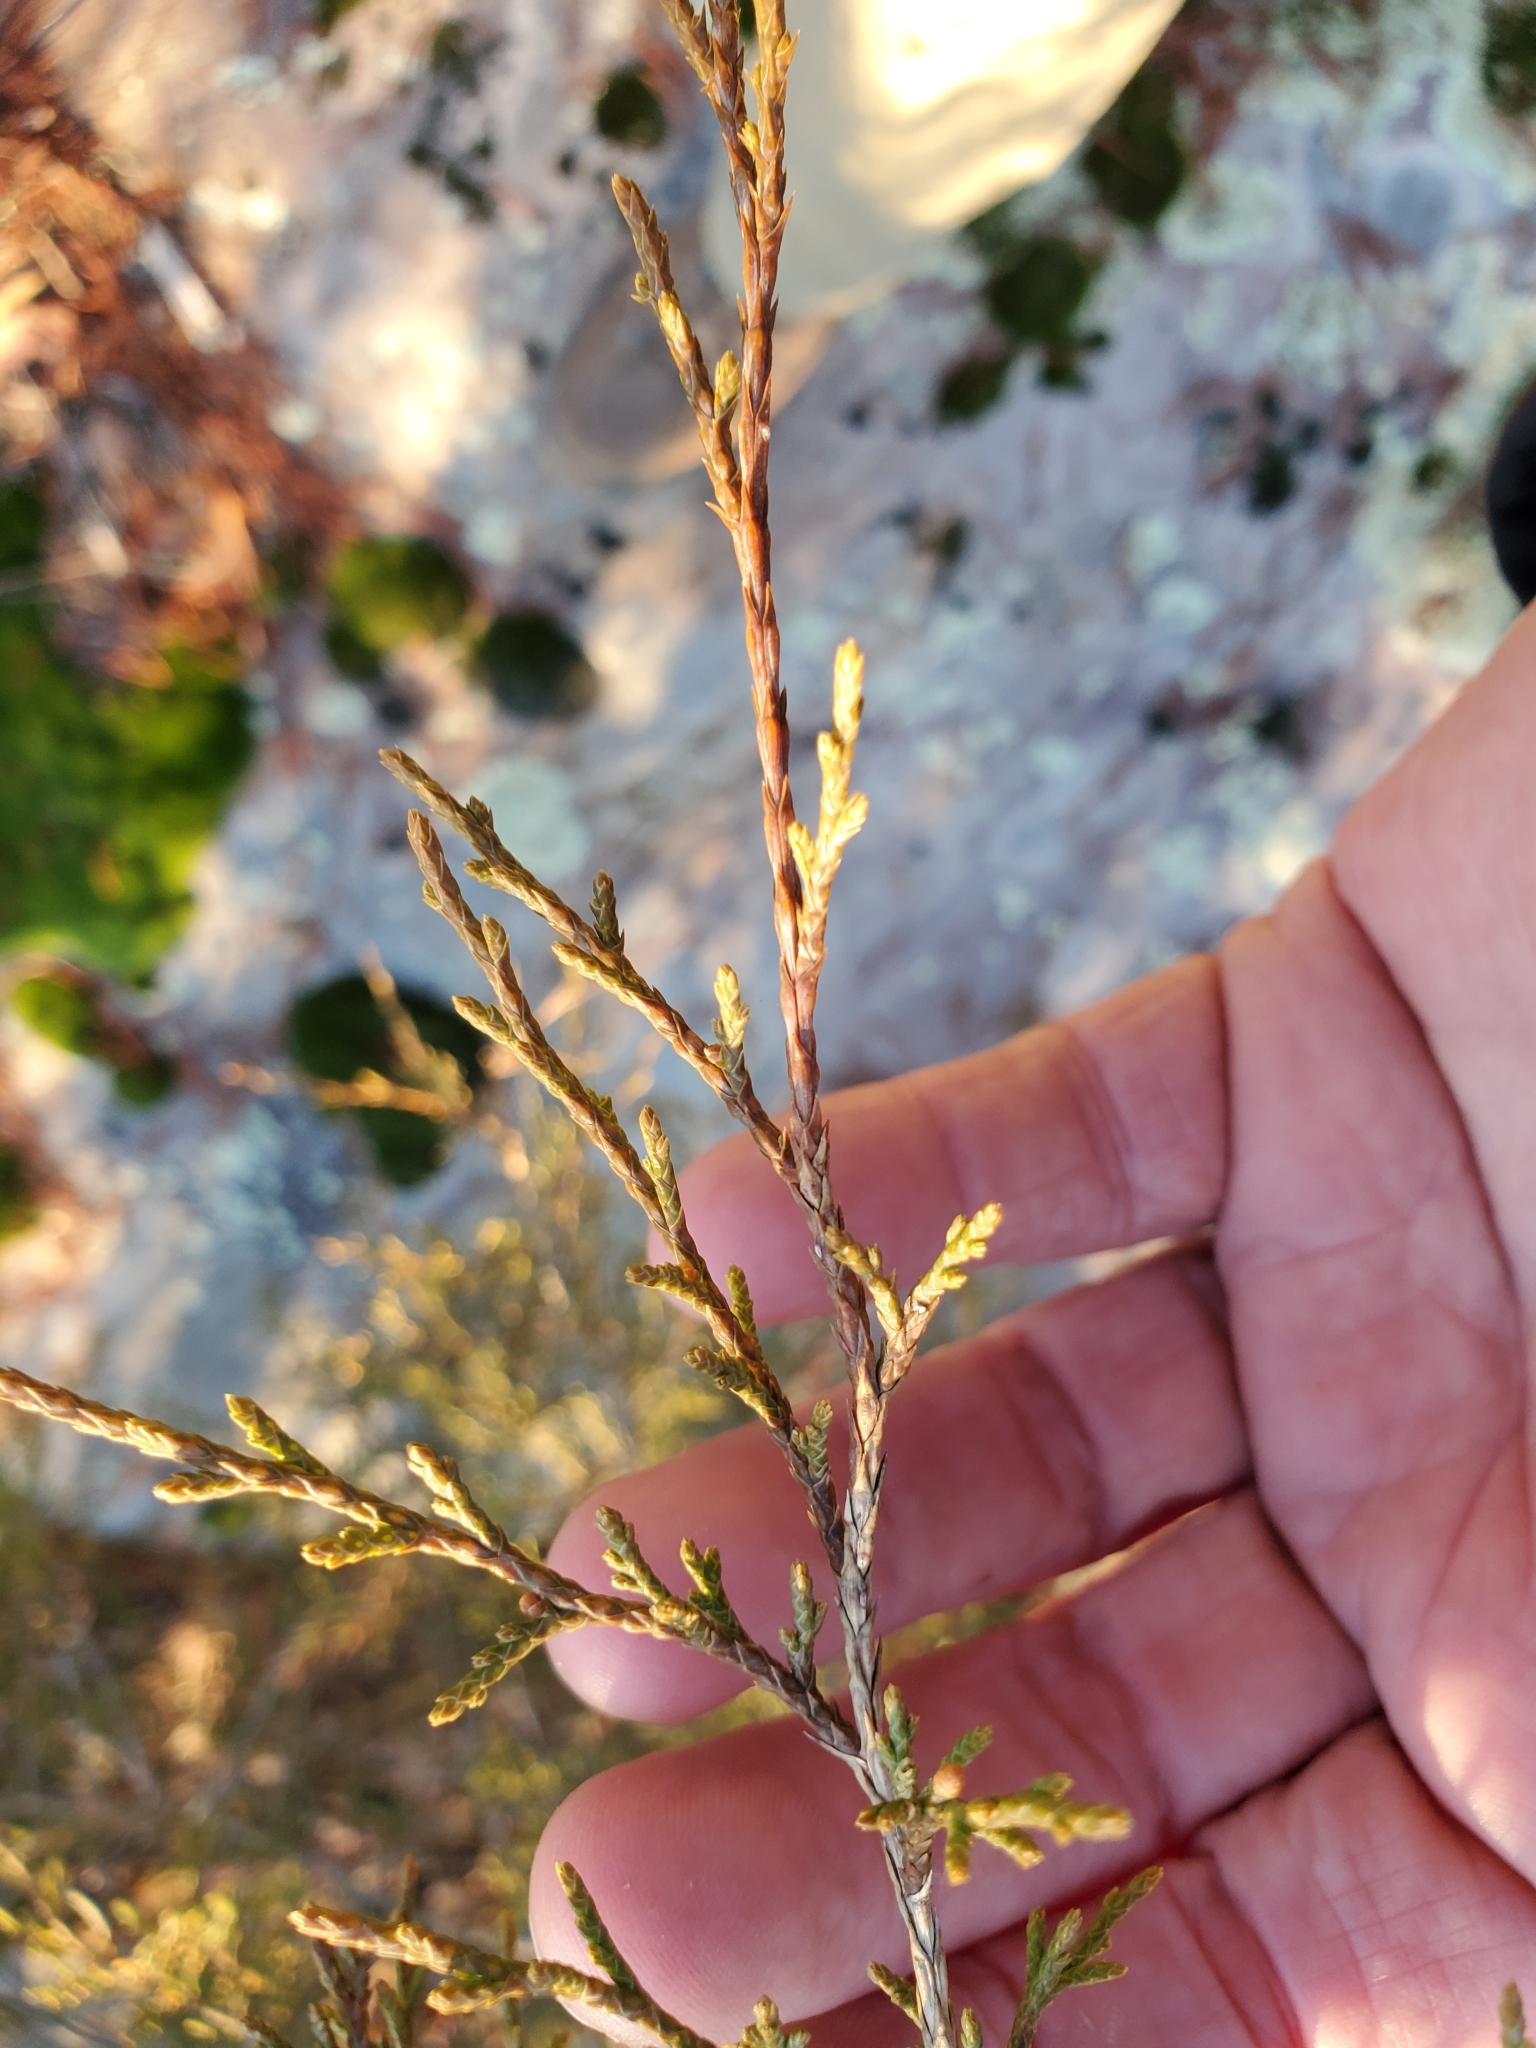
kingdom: Plantae
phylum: Tracheophyta
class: Pinopsida
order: Pinales
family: Cupressaceae
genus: Juniperus
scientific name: Juniperus virginiana
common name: Red juniper
